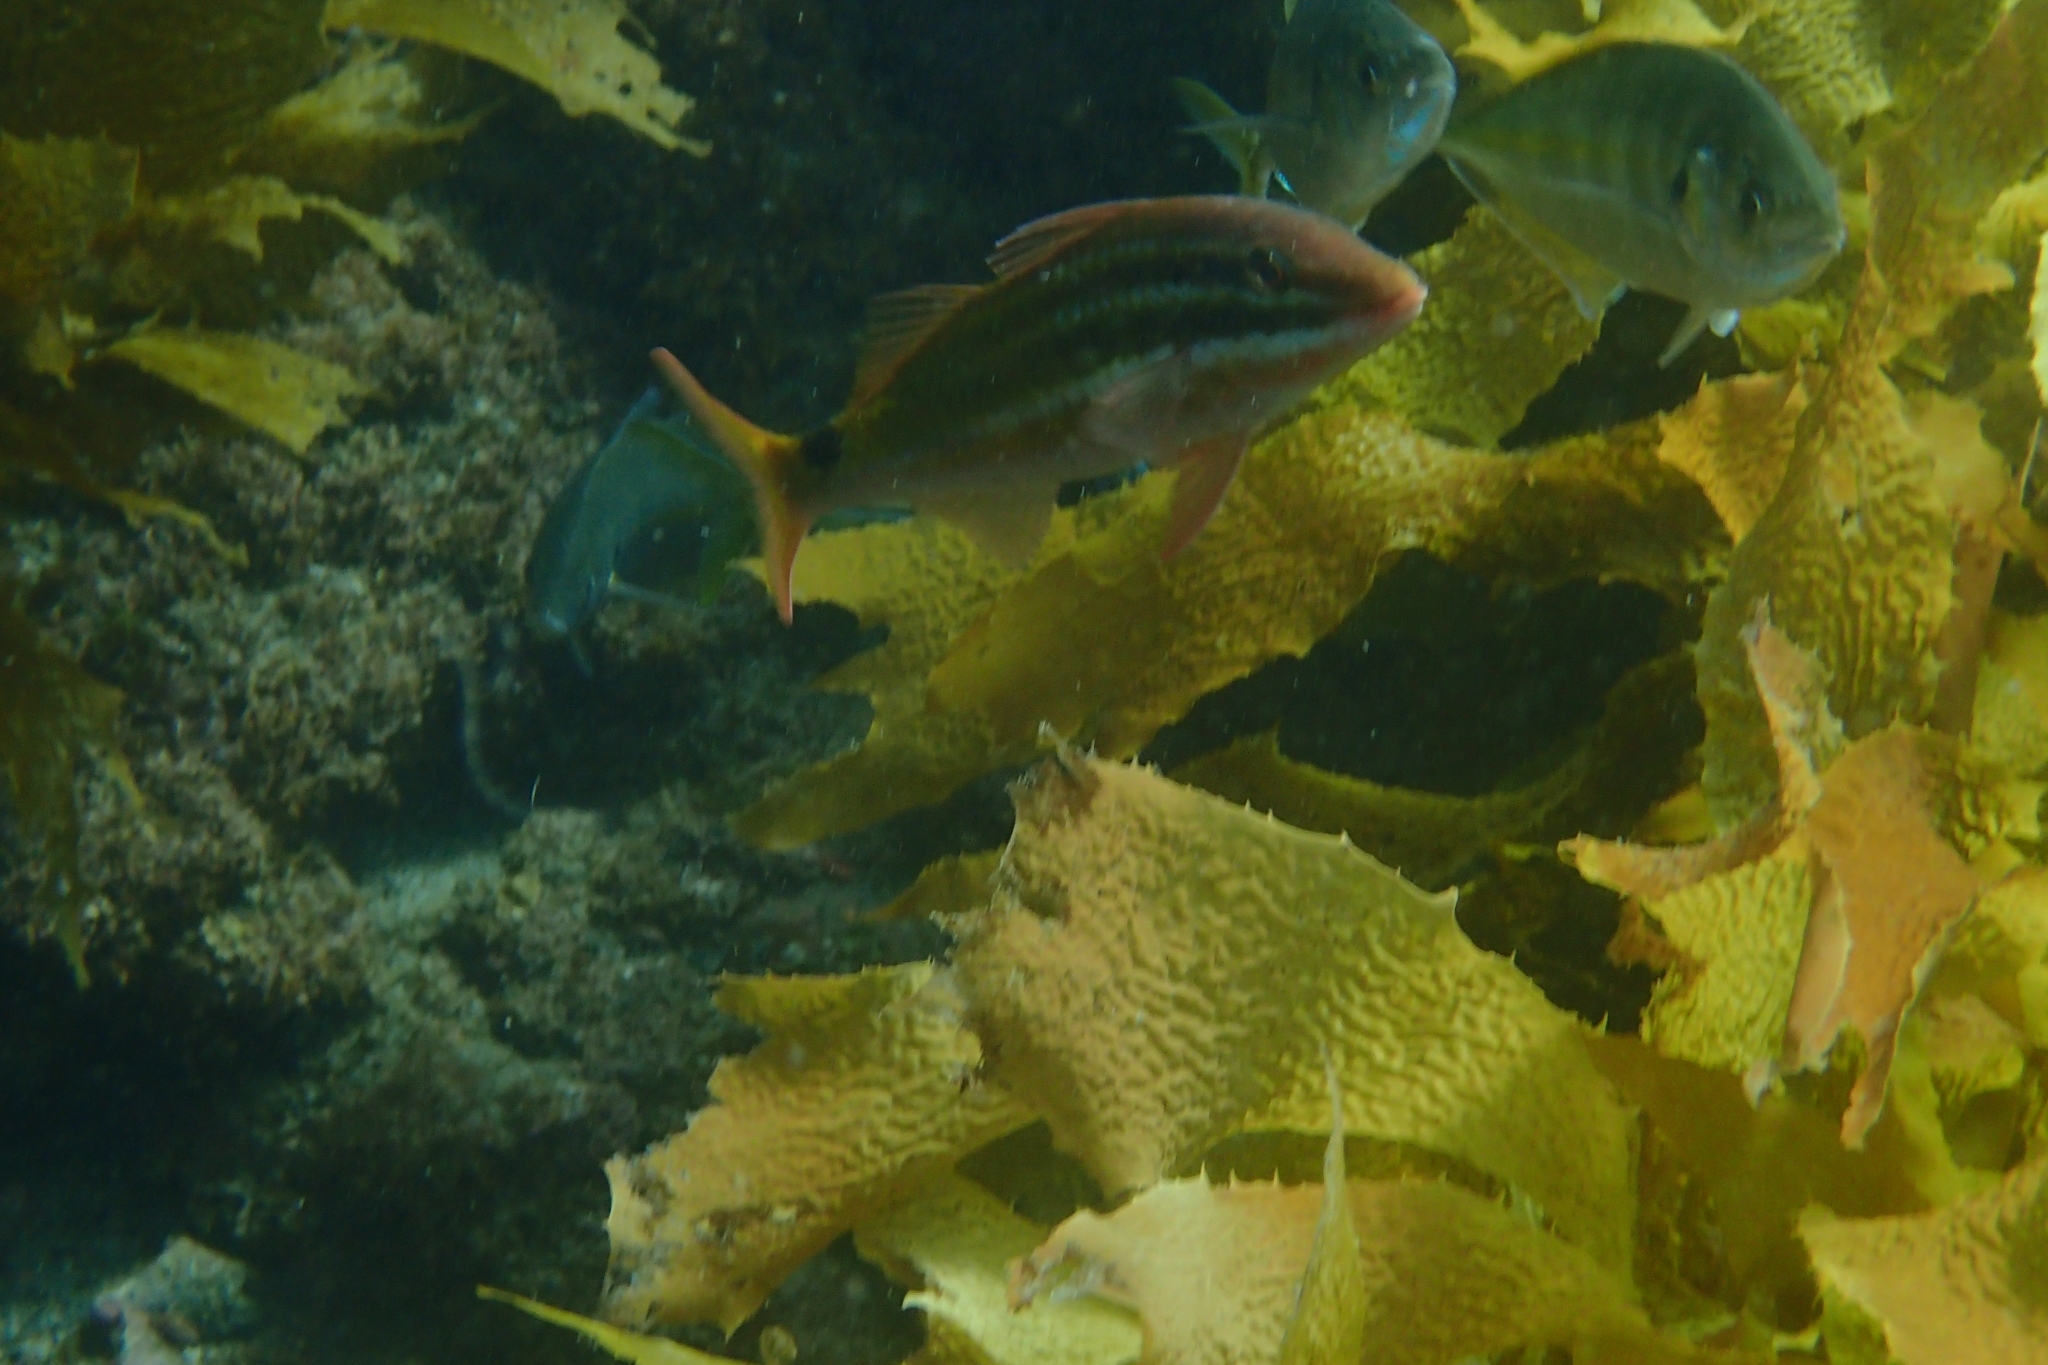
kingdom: Animalia
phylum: Chordata
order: Perciformes
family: Mullidae
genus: Parupeneus
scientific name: Parupeneus spilurus
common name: Blackspot goatfish
